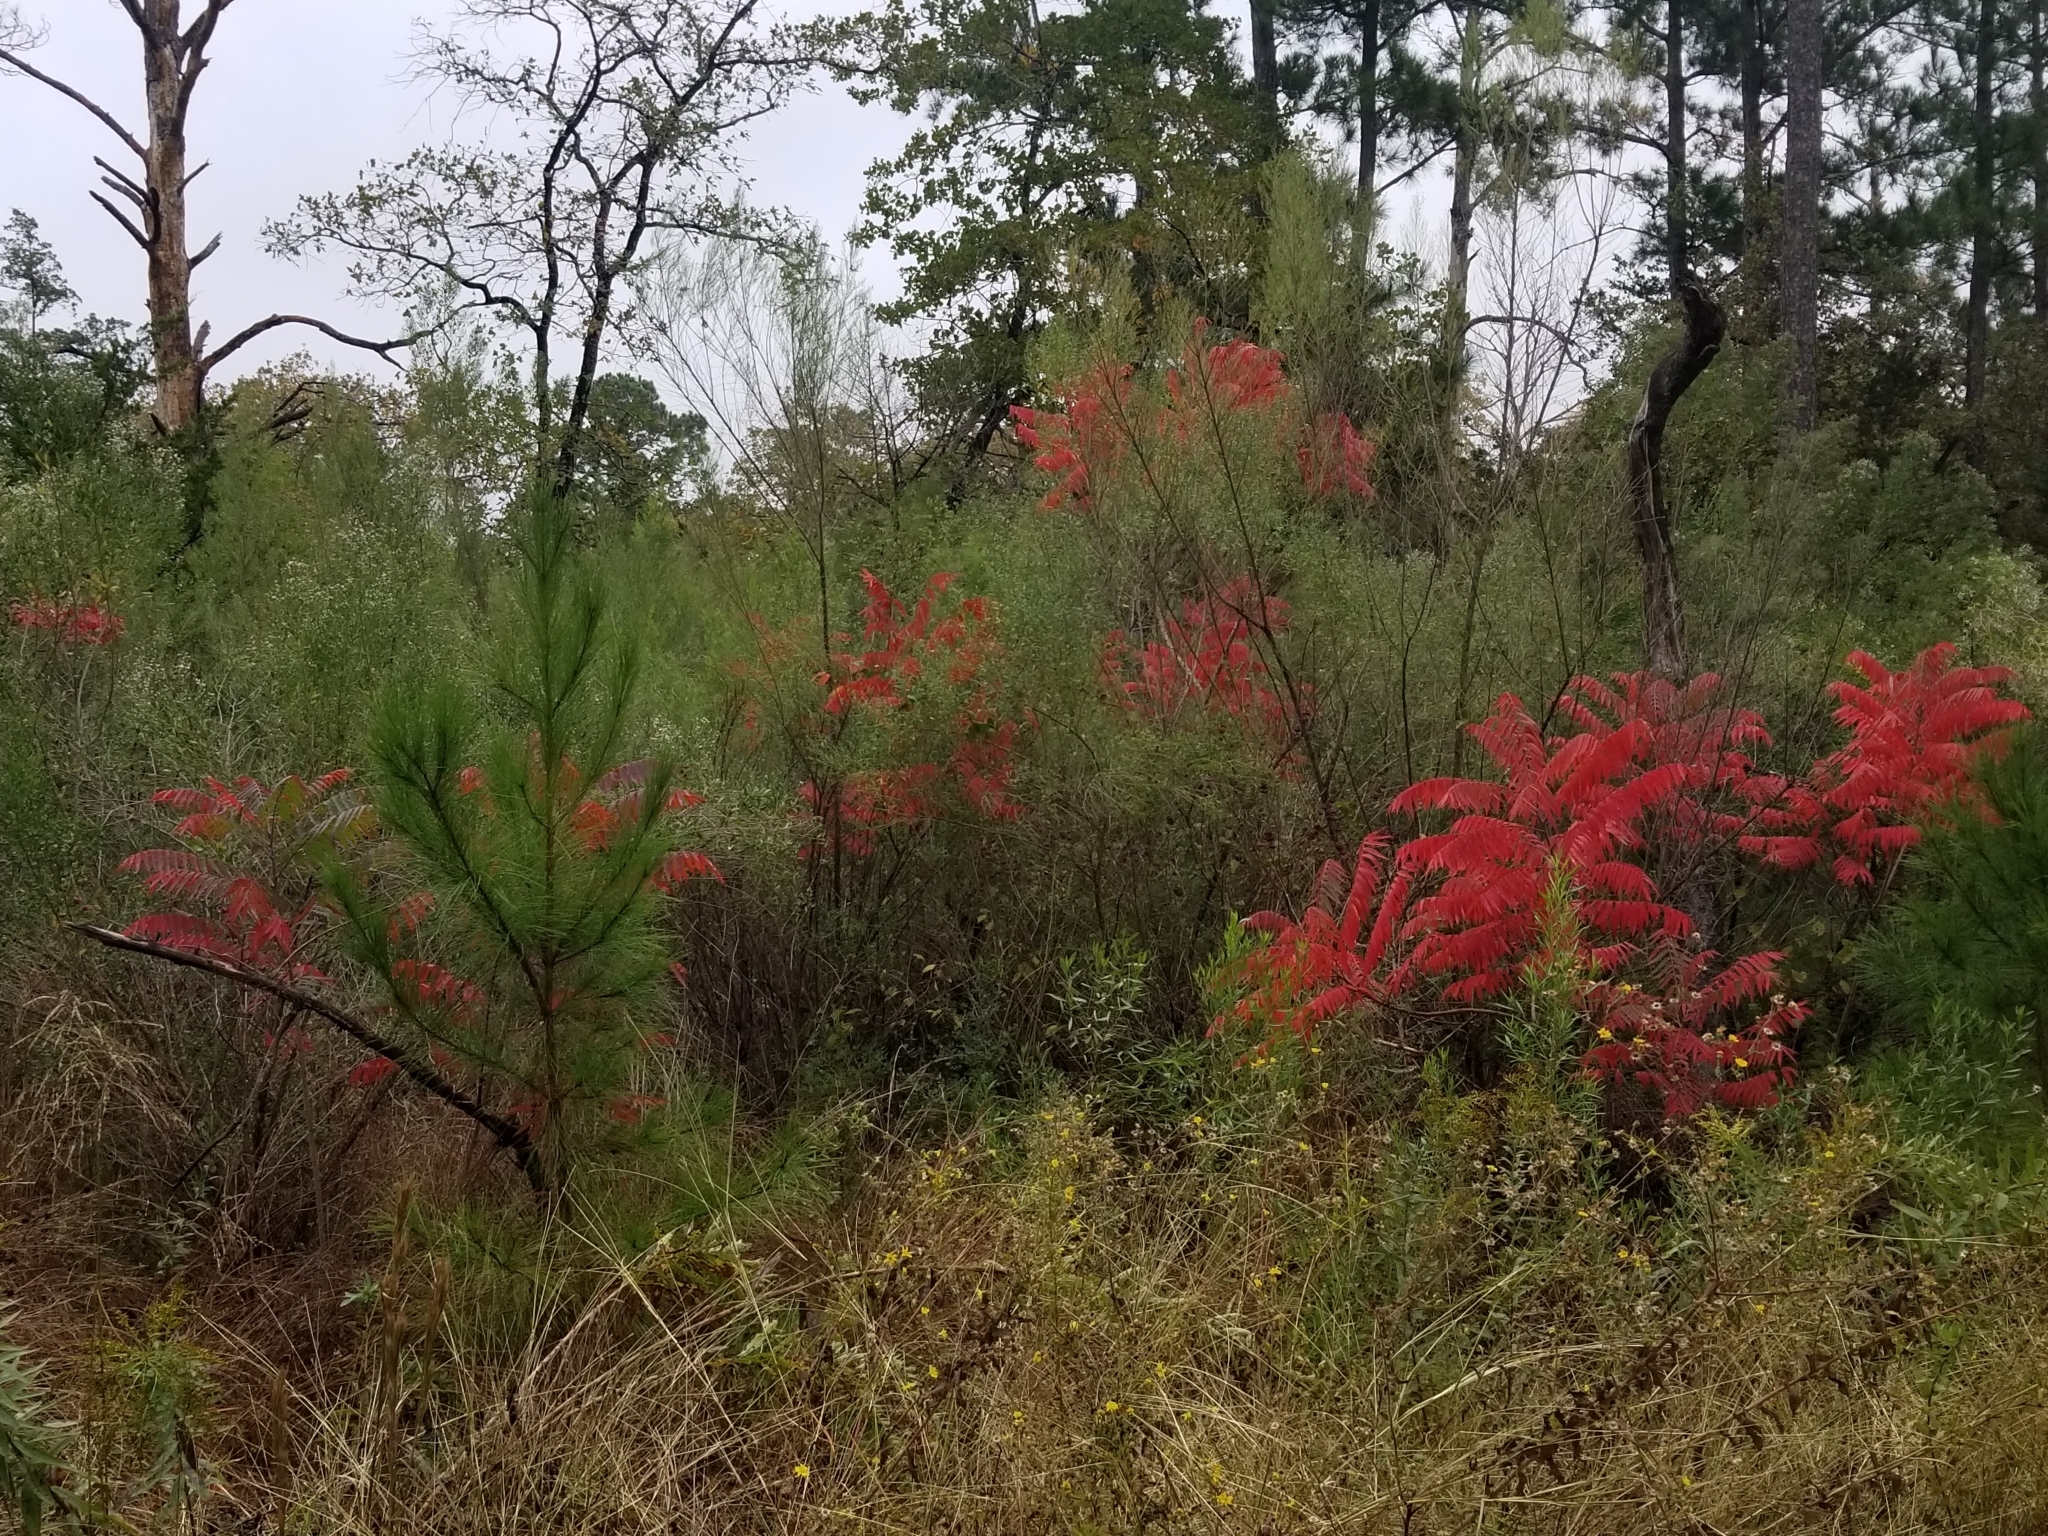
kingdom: Plantae
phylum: Tracheophyta
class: Magnoliopsida
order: Sapindales
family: Anacardiaceae
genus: Rhus
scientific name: Rhus copallina
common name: Shining sumac
